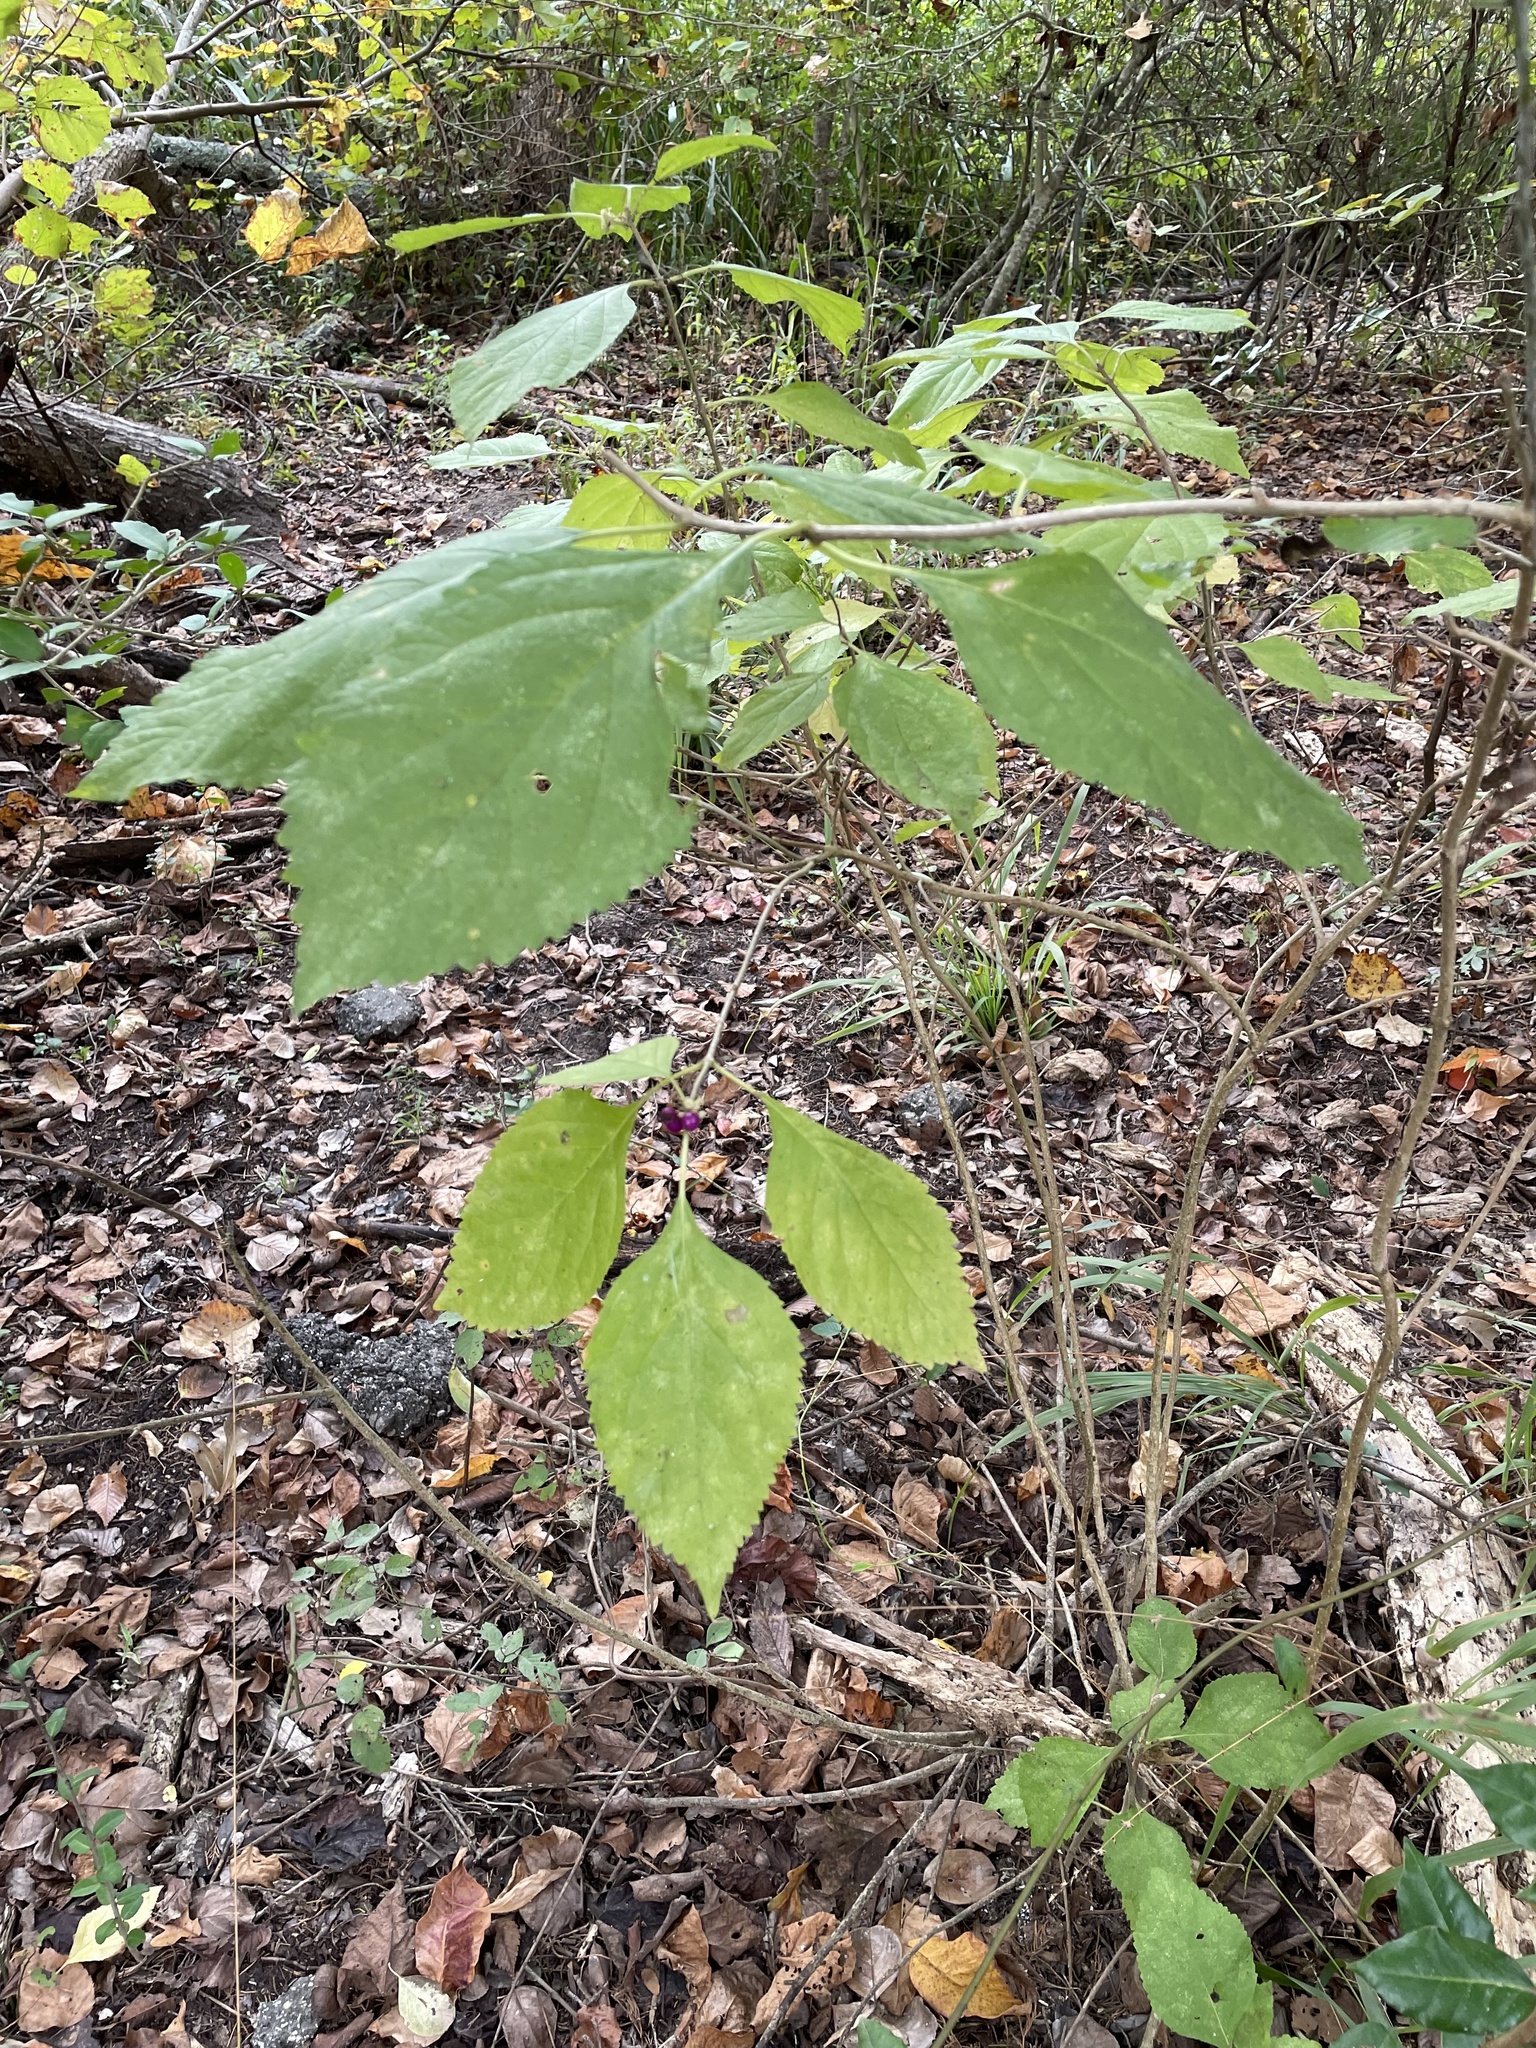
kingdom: Plantae
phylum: Tracheophyta
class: Magnoliopsida
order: Lamiales
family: Lamiaceae
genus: Callicarpa
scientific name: Callicarpa americana
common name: American beautyberry
